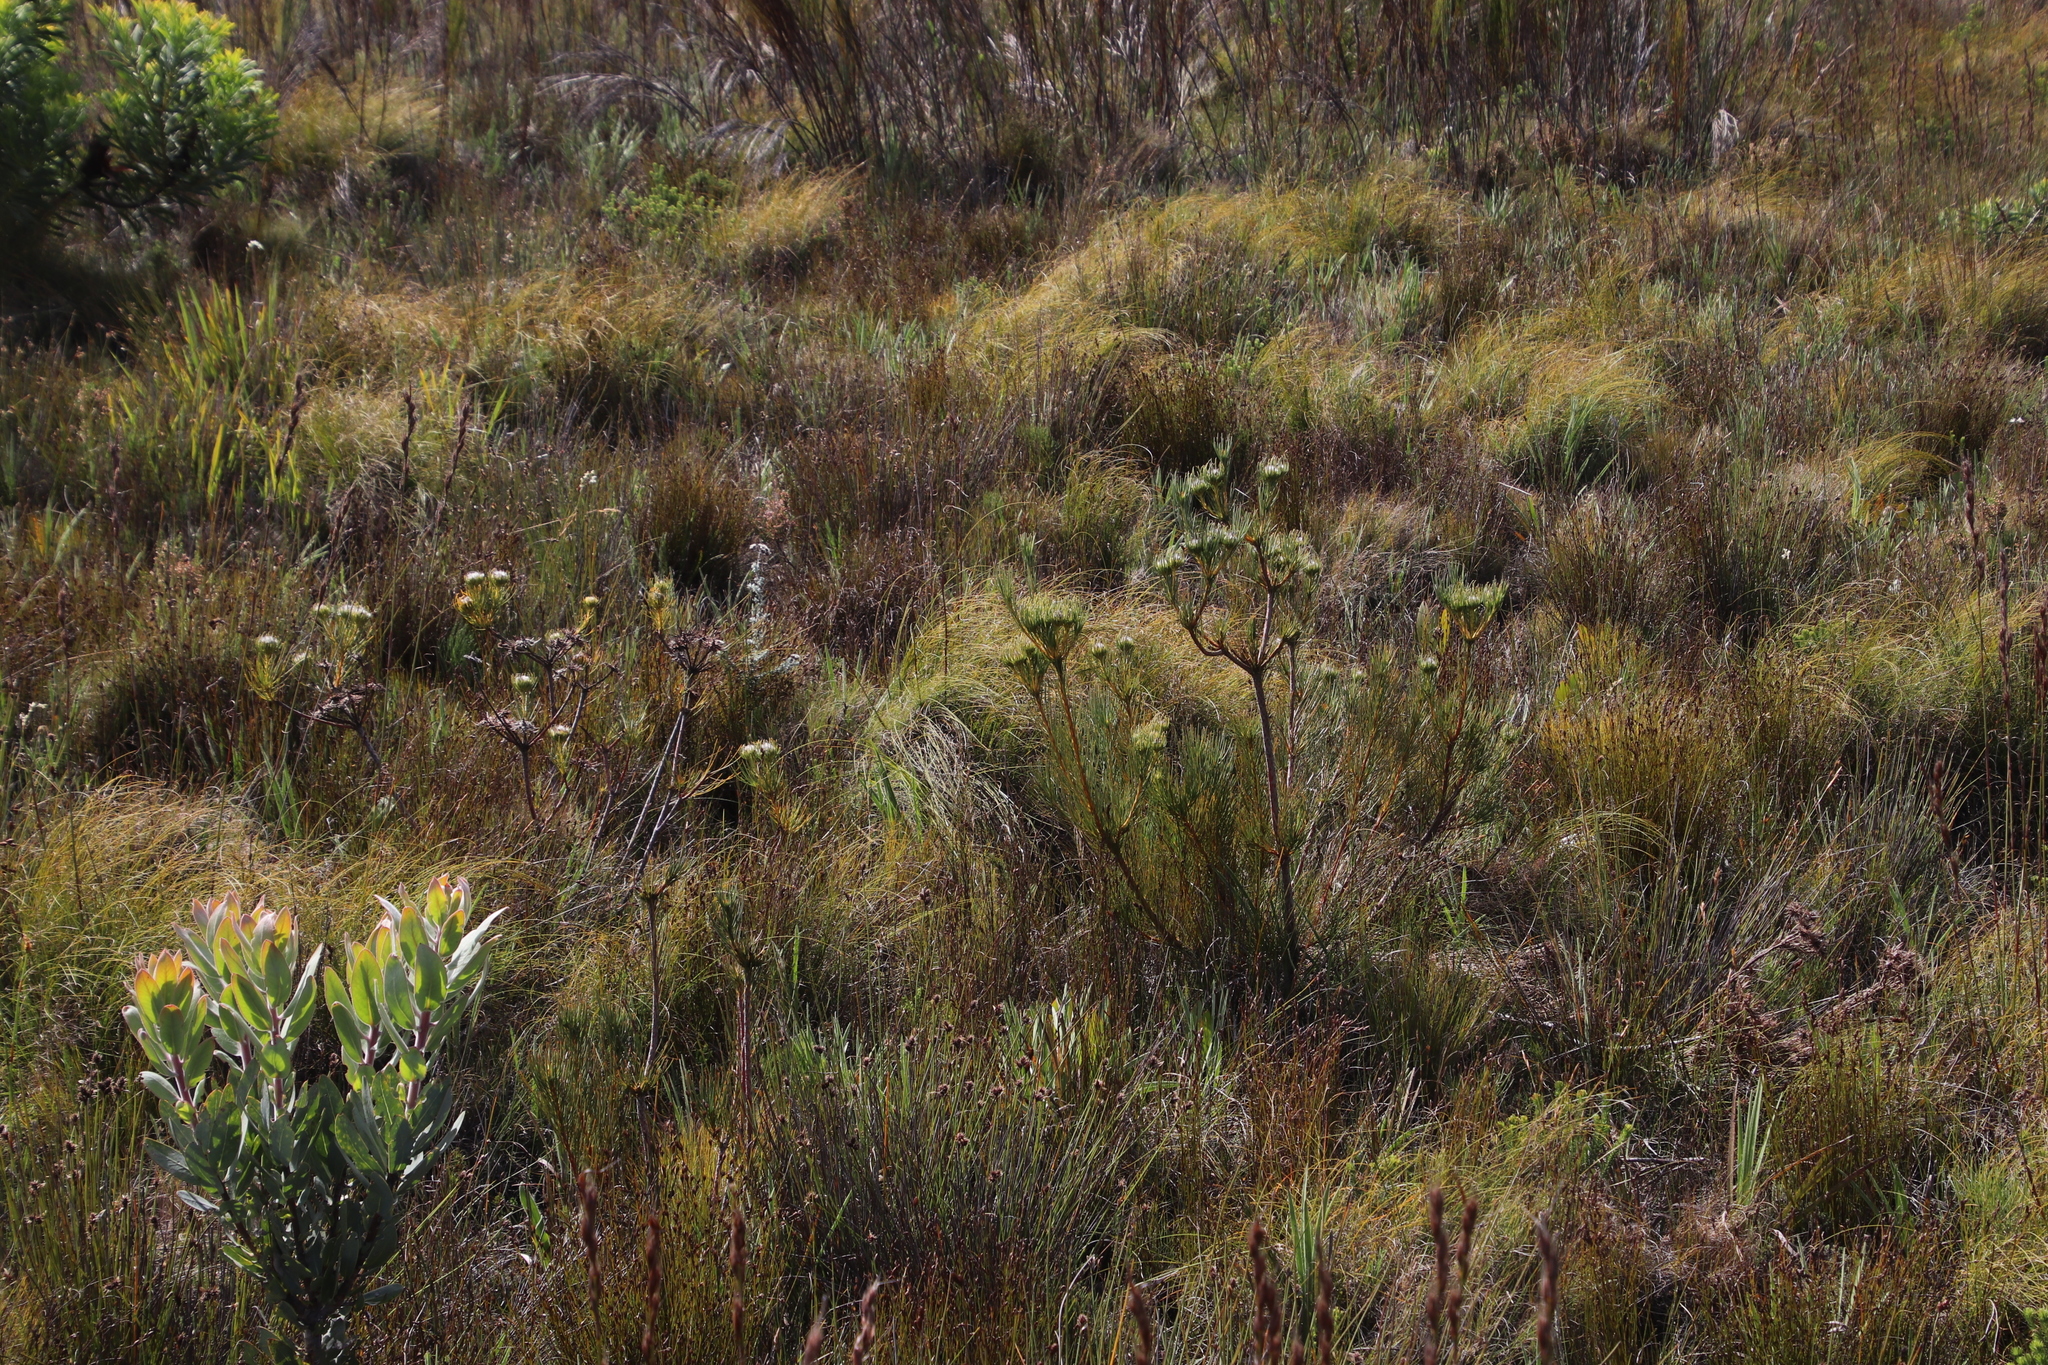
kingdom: Plantae
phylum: Tracheophyta
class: Magnoliopsida
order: Proteales
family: Proteaceae
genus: Aulax
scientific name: Aulax pallasia
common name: Needle-leaf featherbush
